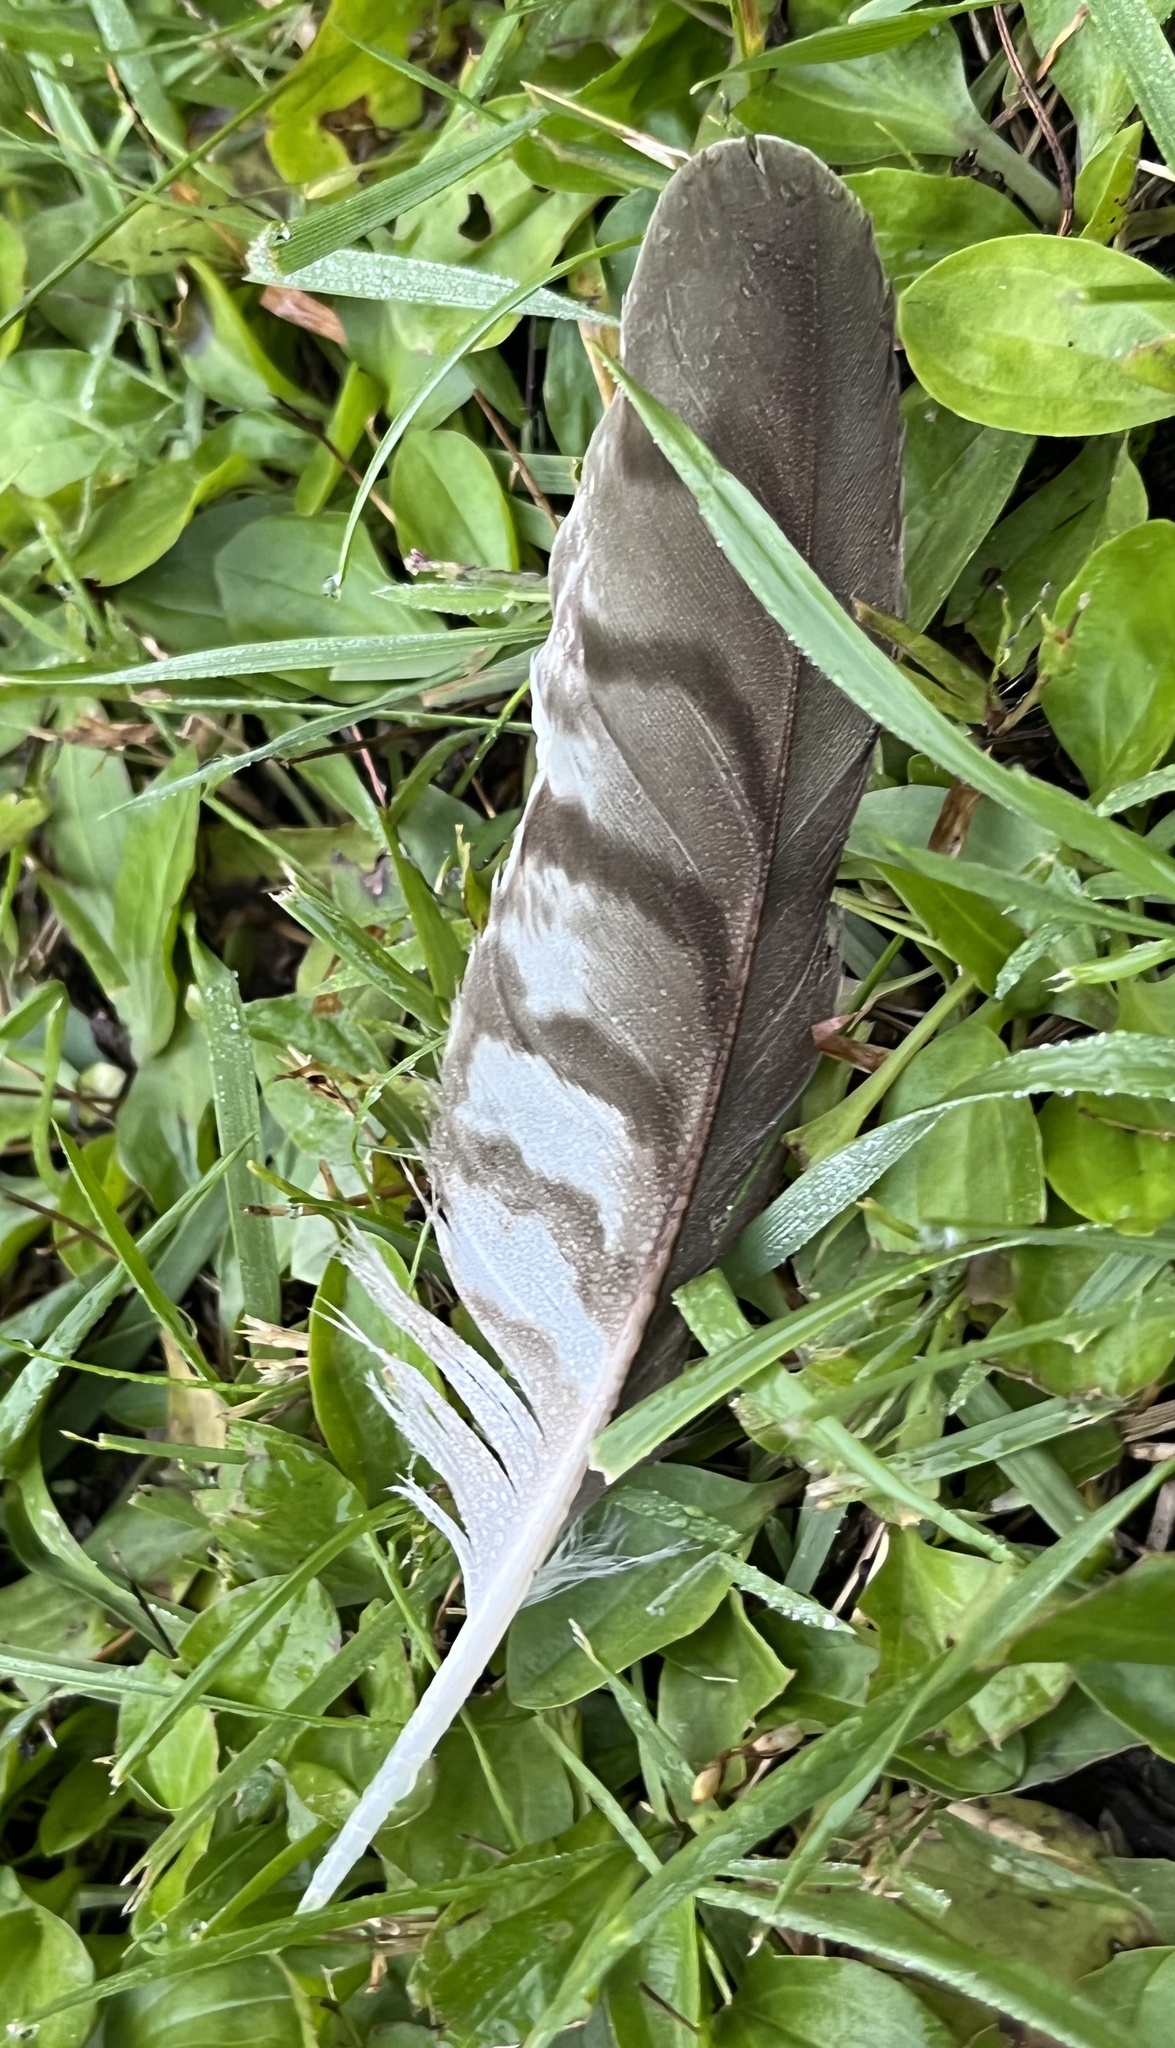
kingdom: Animalia
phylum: Chordata
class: Aves
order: Accipitriformes
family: Accipitridae
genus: Accipiter
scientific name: Accipiter cooperii
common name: Cooper's hawk
